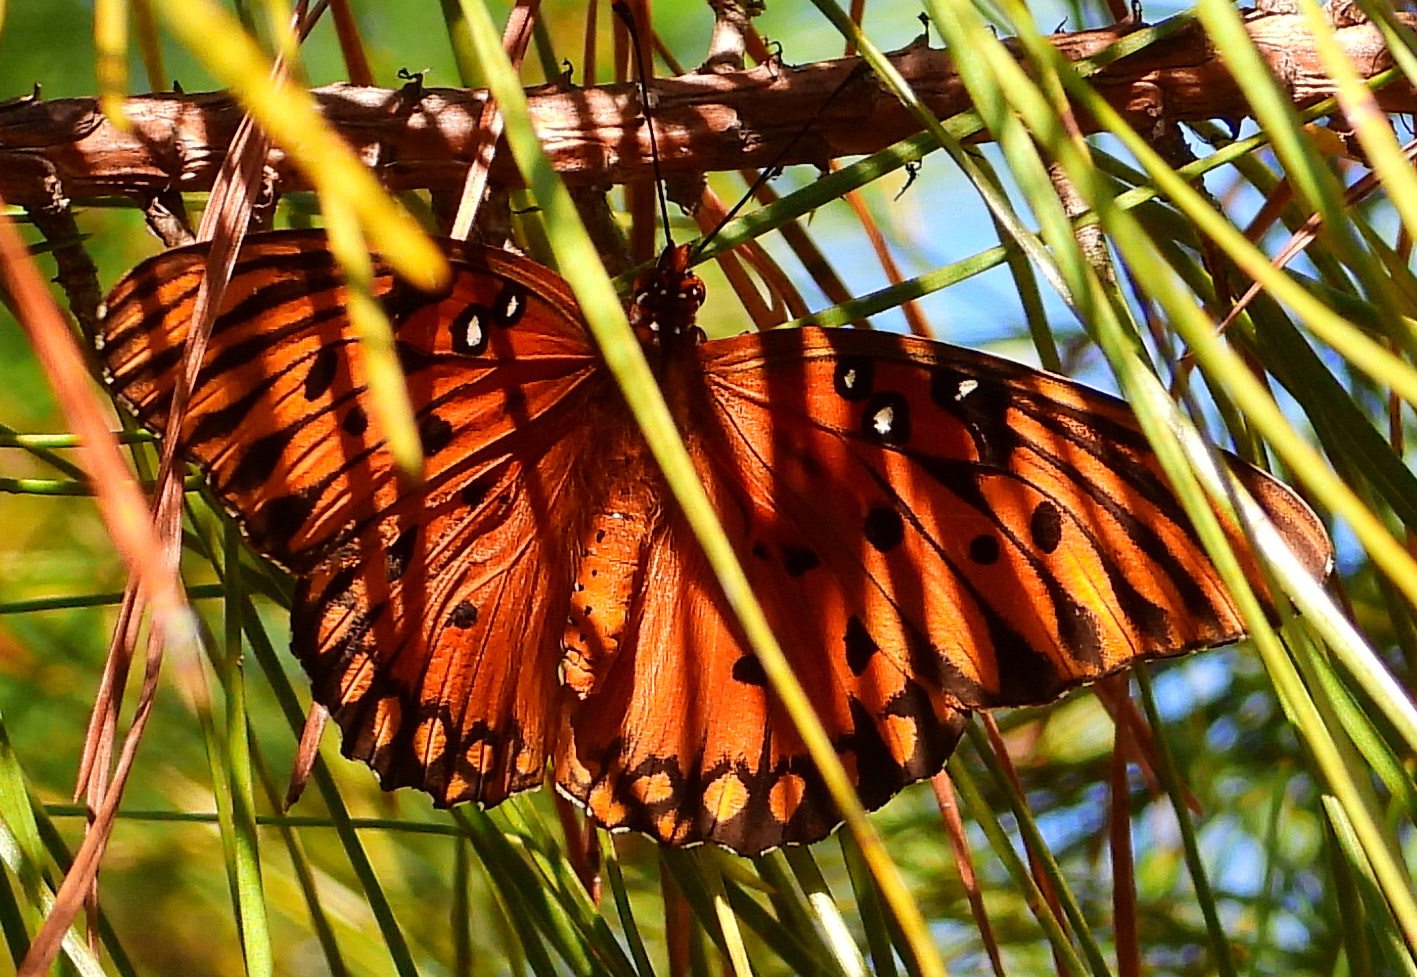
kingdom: Animalia
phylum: Arthropoda
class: Insecta
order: Lepidoptera
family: Nymphalidae
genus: Dione
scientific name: Dione vanillae
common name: Gulf fritillary
